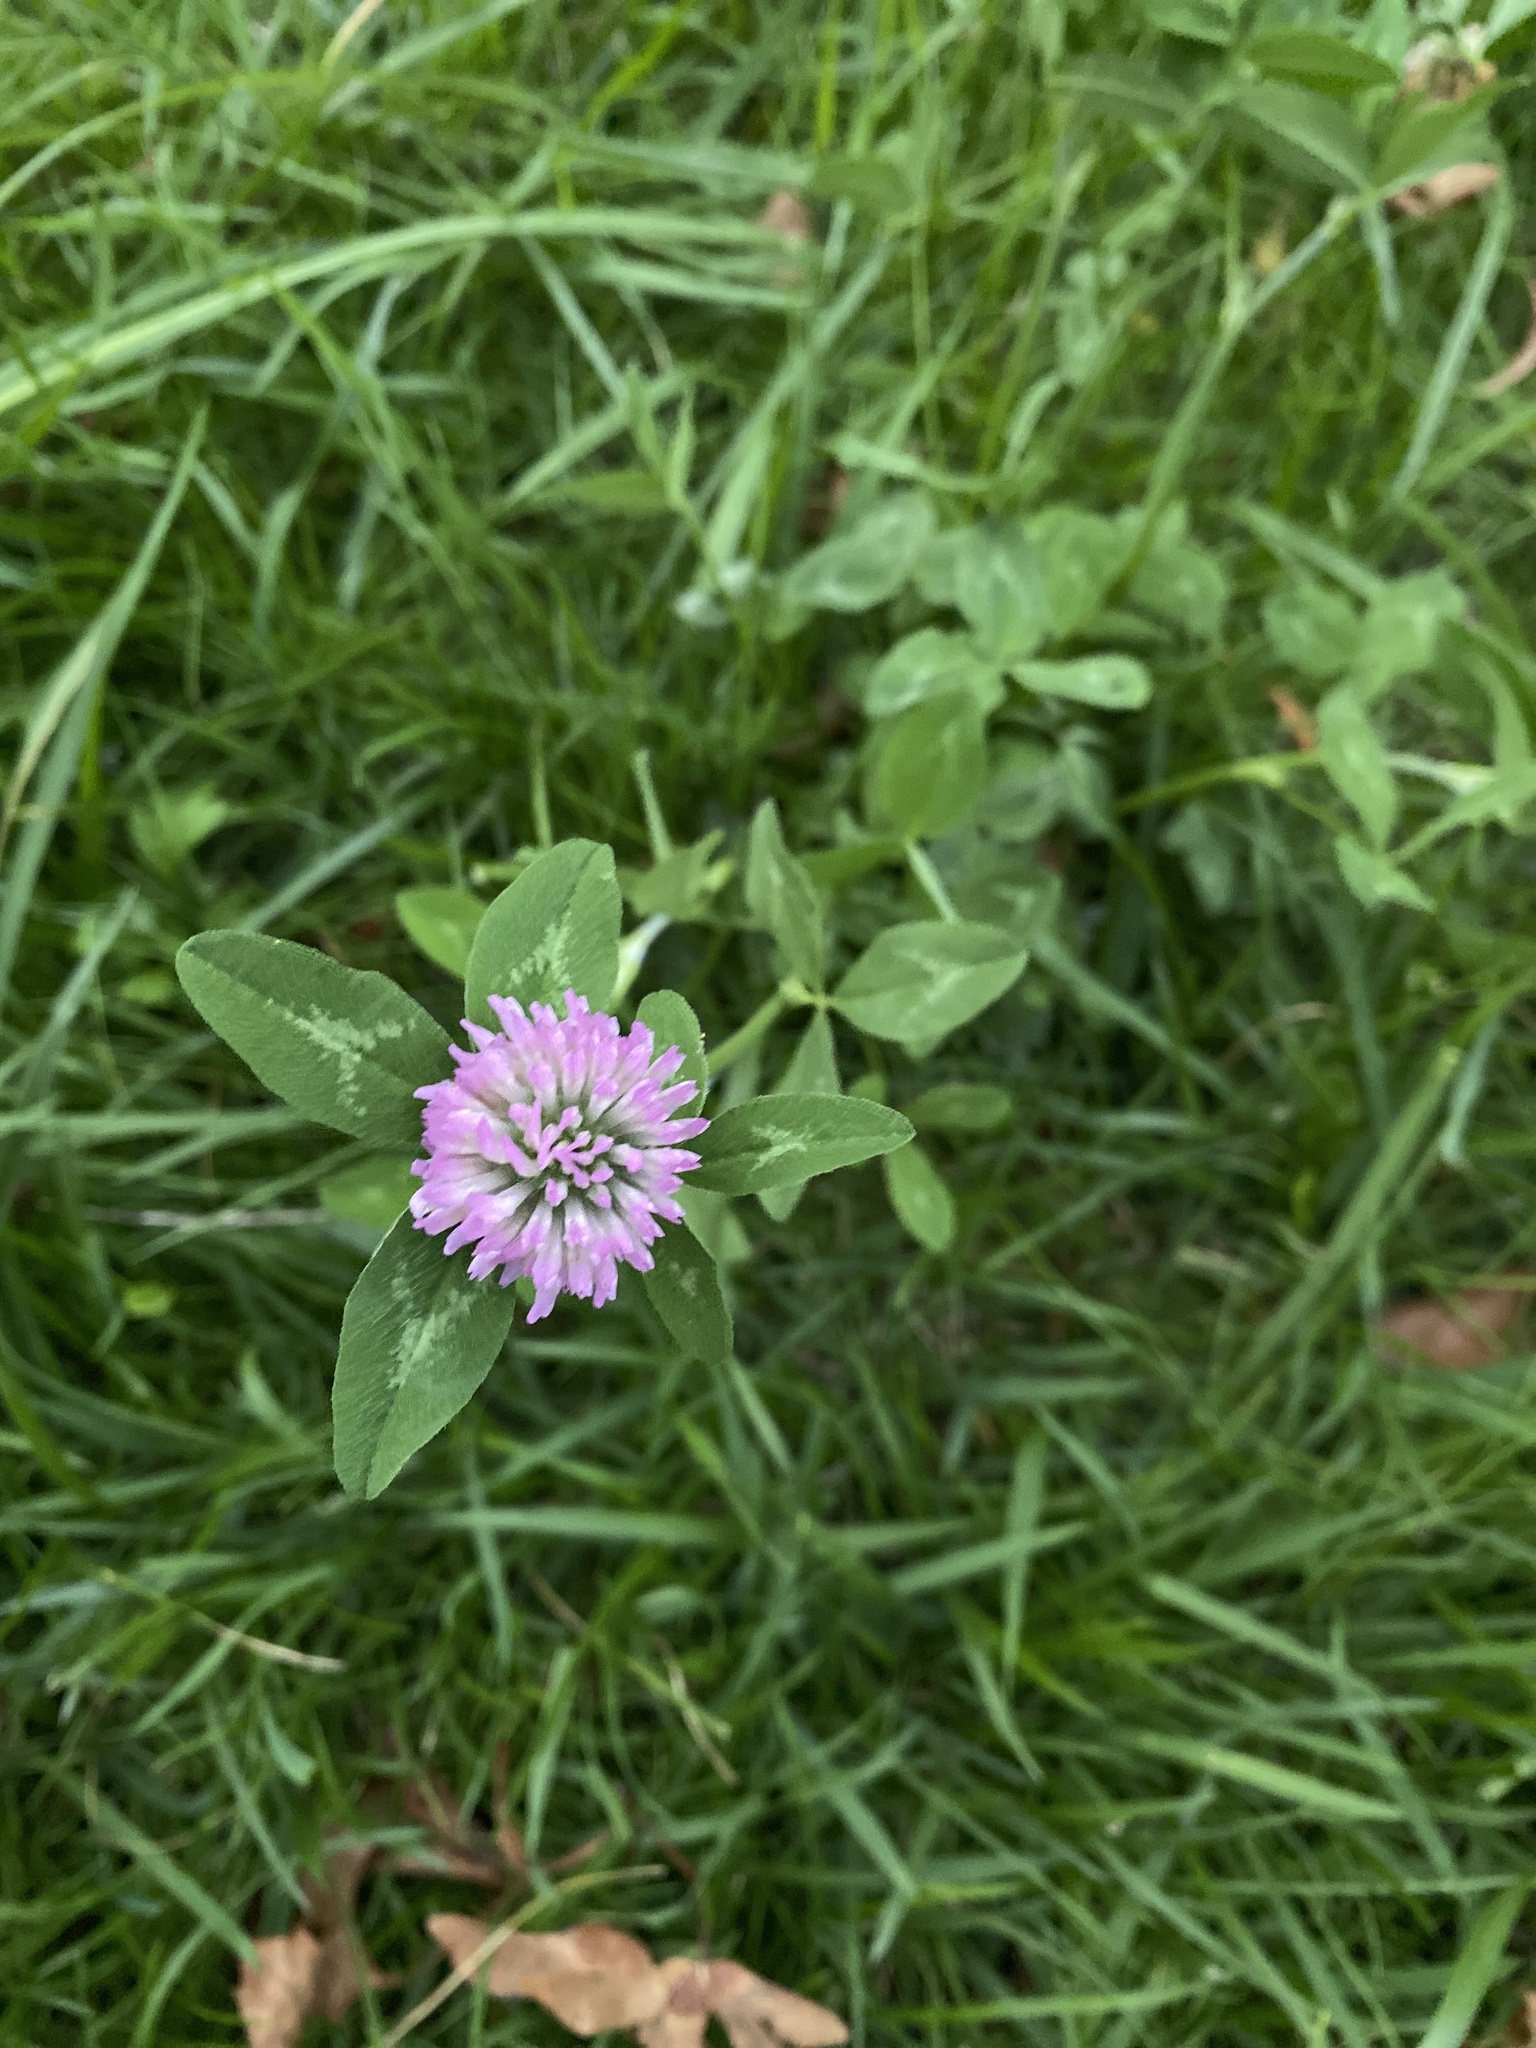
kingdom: Plantae
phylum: Tracheophyta
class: Magnoliopsida
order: Fabales
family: Fabaceae
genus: Trifolium
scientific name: Trifolium pratense
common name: Red clover
